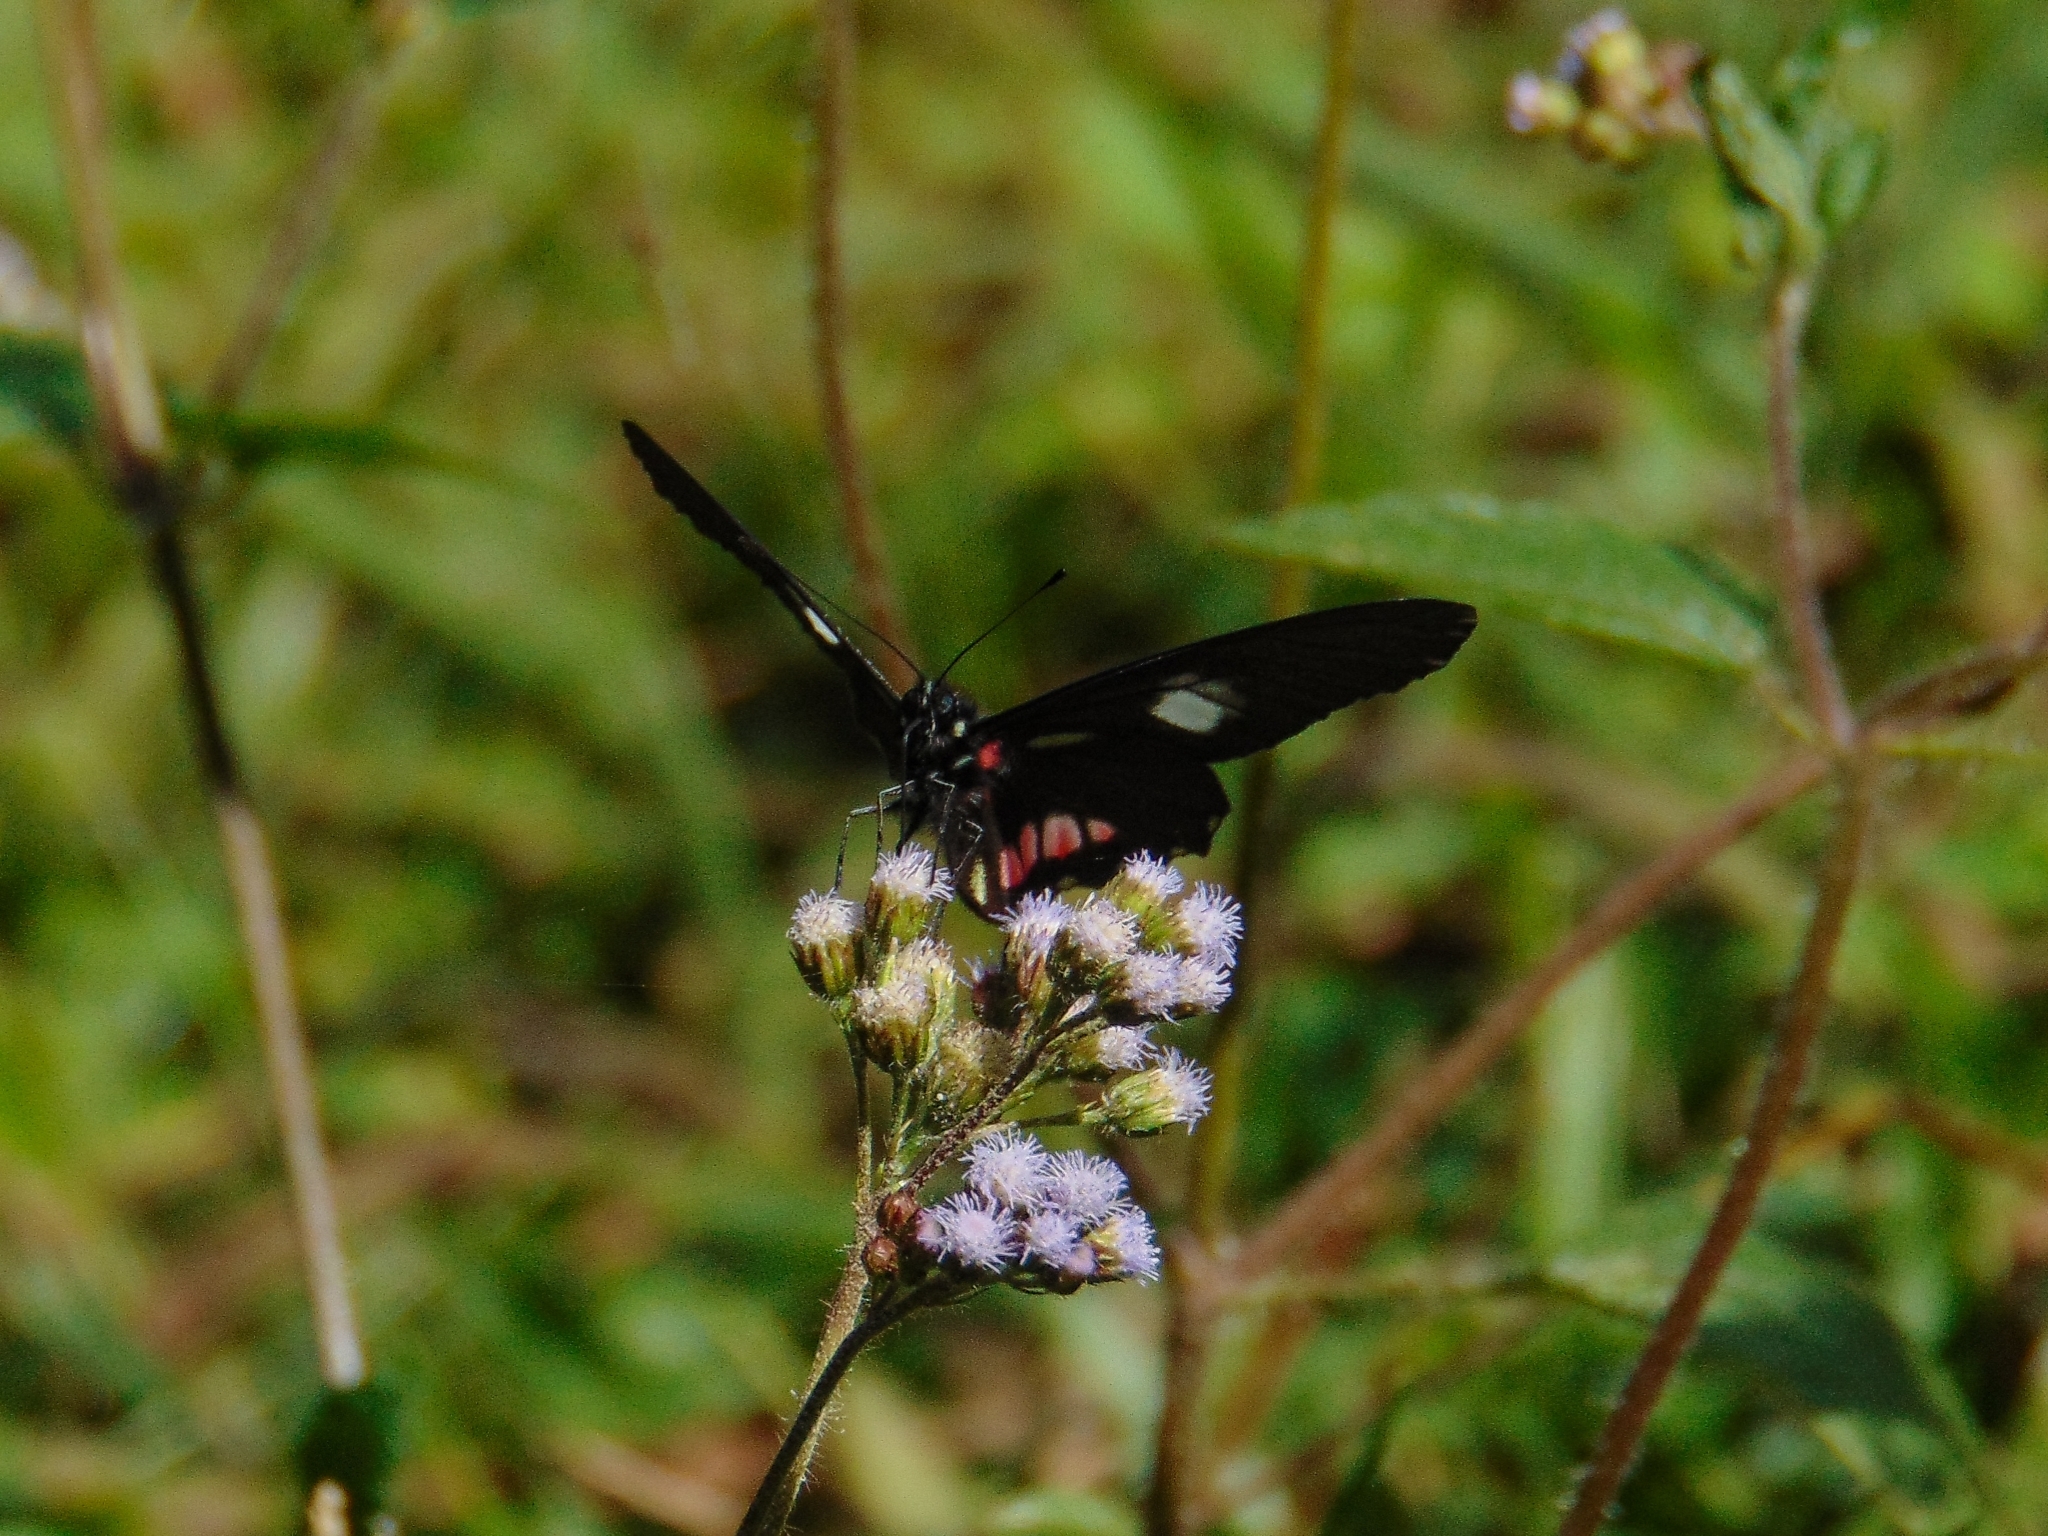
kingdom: Animalia
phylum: Arthropoda
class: Insecta
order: Lepidoptera
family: Pieridae
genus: Archonias
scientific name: Archonias brassolis
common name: Cattleheart white
